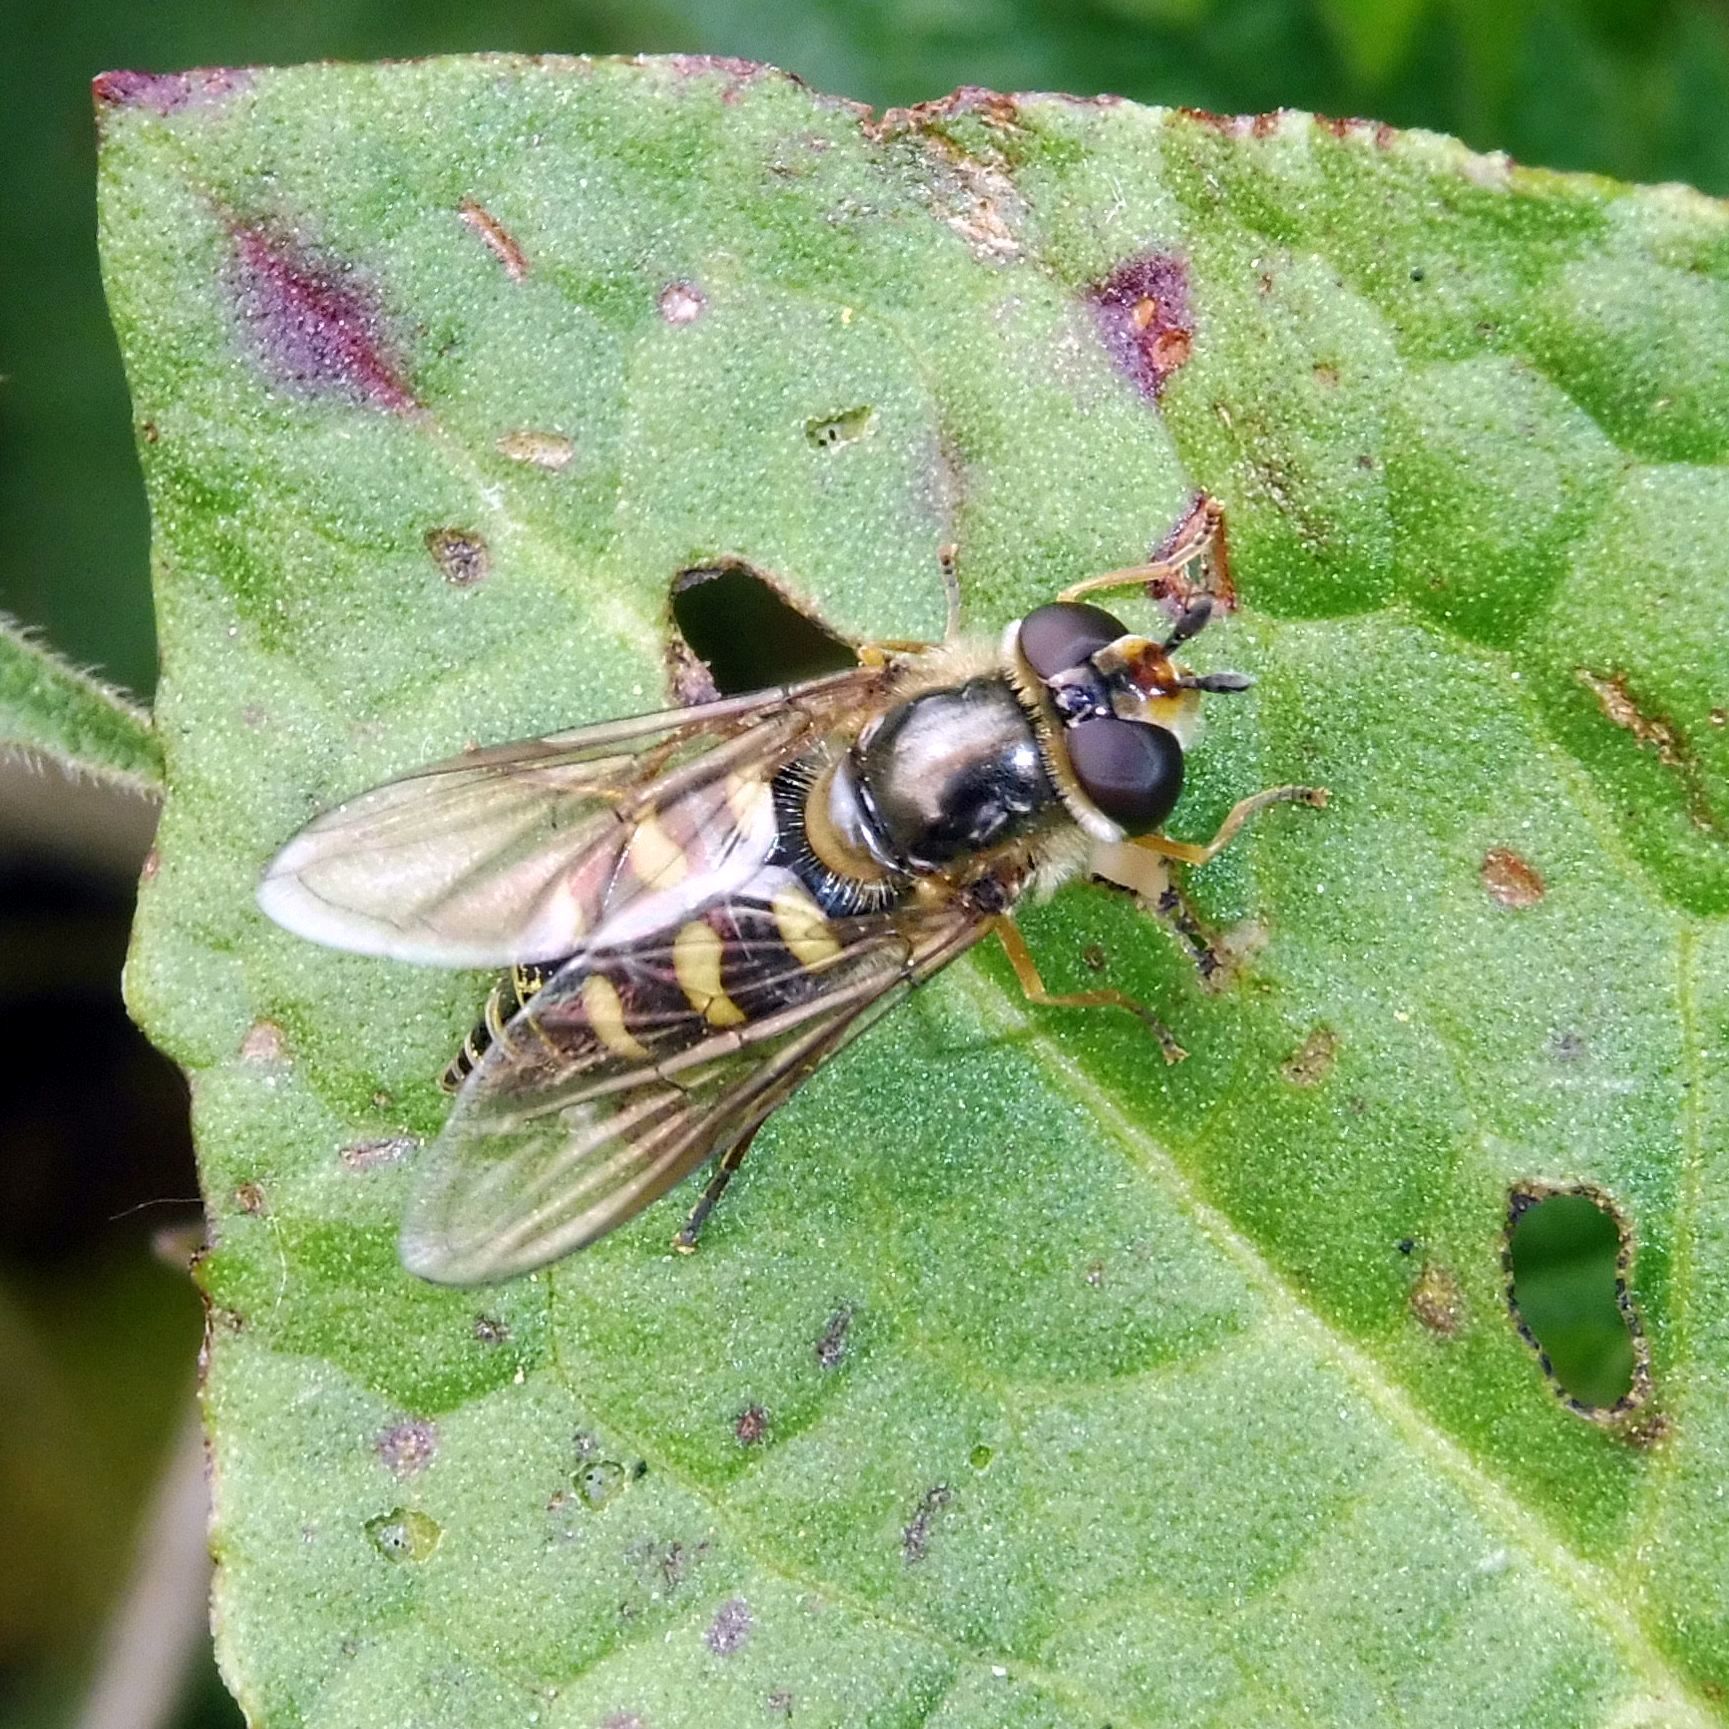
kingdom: Animalia
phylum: Arthropoda
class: Insecta
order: Diptera
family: Syrphidae
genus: Eupeodes
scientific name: Eupeodes luniger
